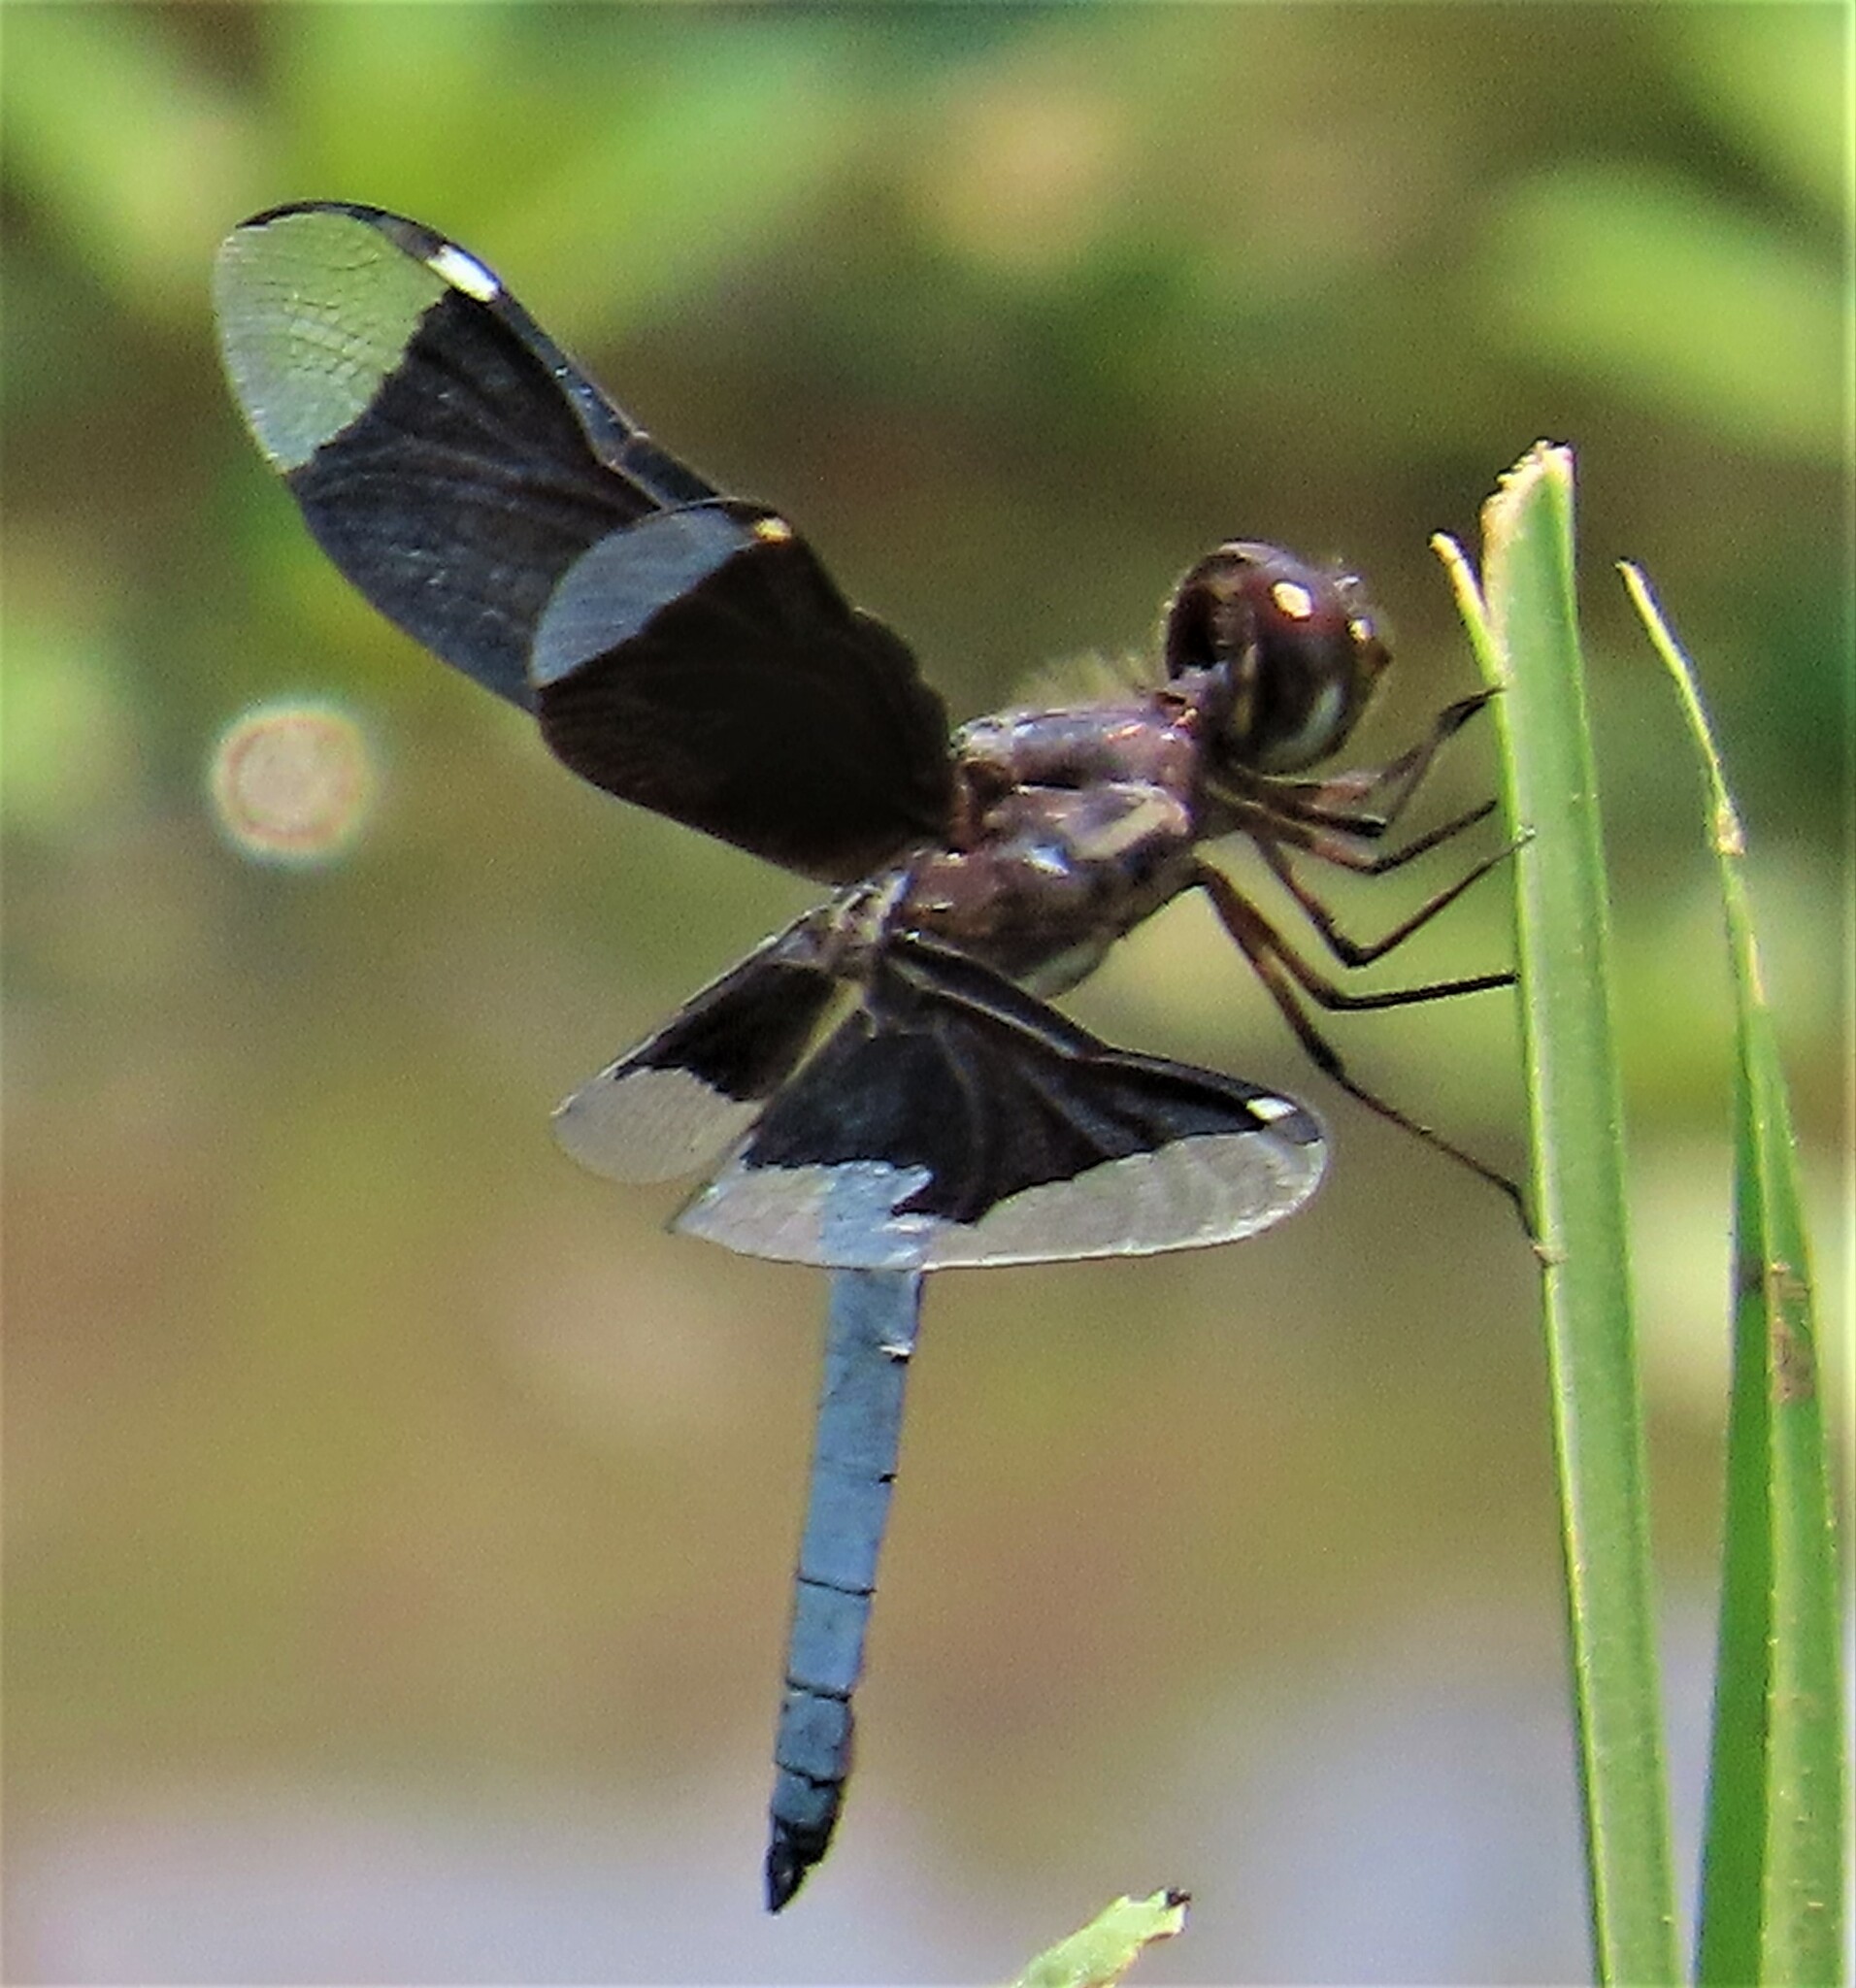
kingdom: Animalia
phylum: Arthropoda
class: Insecta
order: Odonata
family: Libellulidae
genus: Palpopleura
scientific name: Palpopleura lucia
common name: Lucia widow
